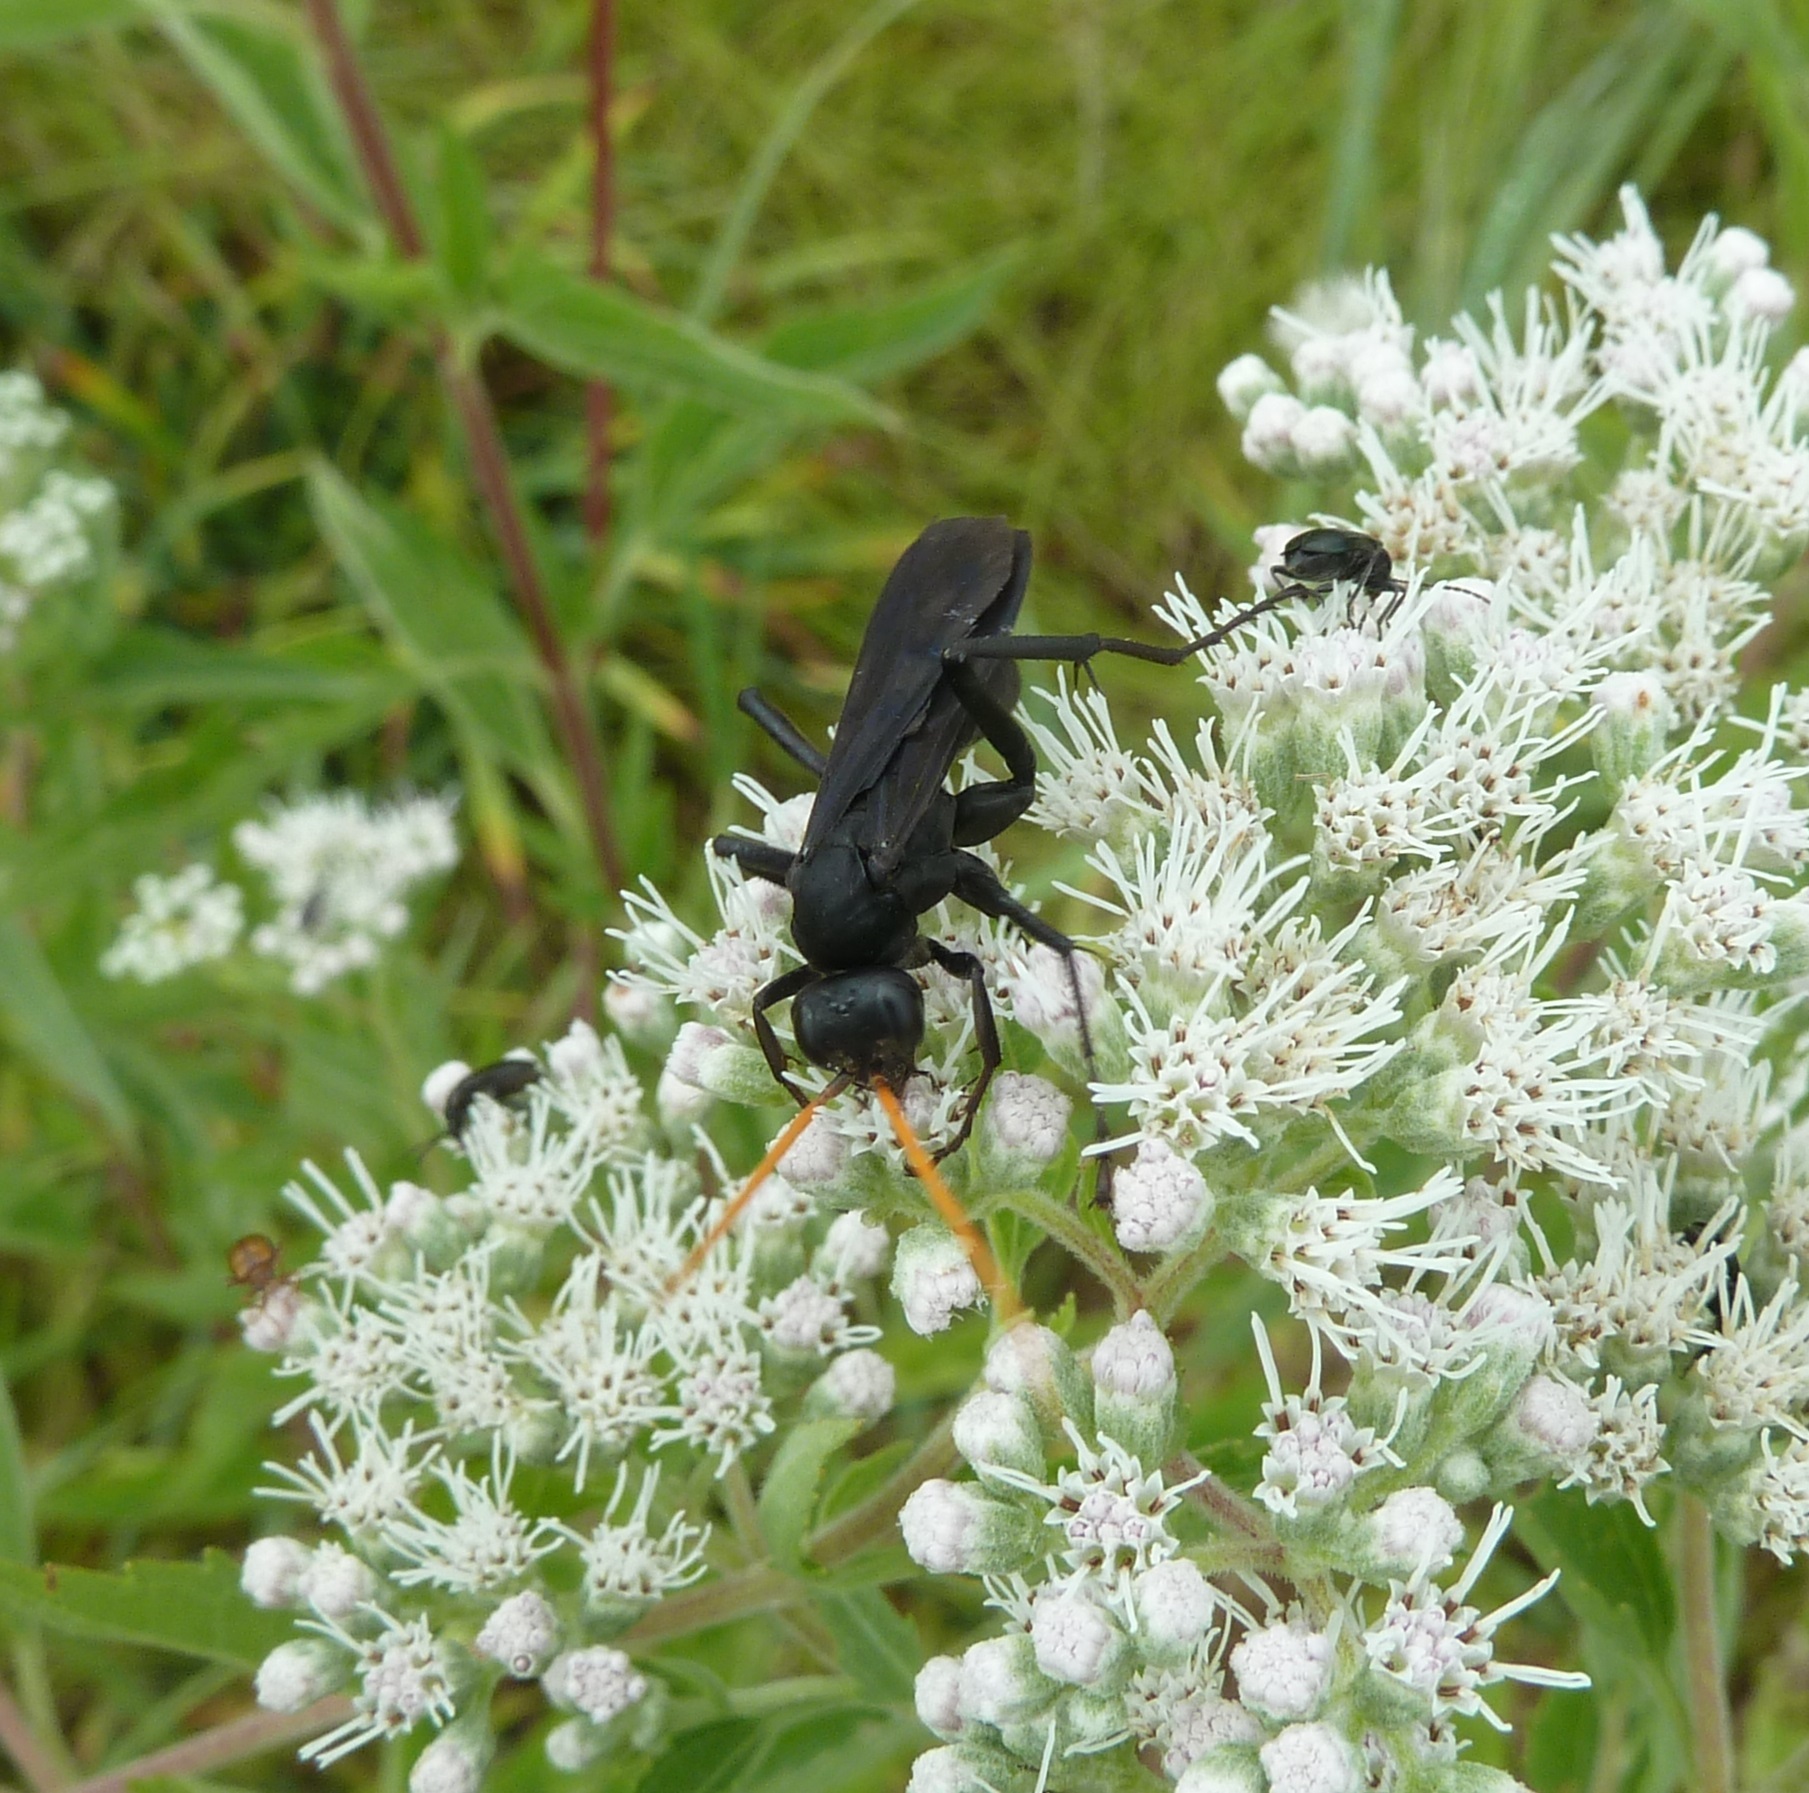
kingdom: Animalia
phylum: Arthropoda
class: Insecta
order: Hymenoptera
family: Pompilidae
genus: Entypus
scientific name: Entypus fulvicornis
